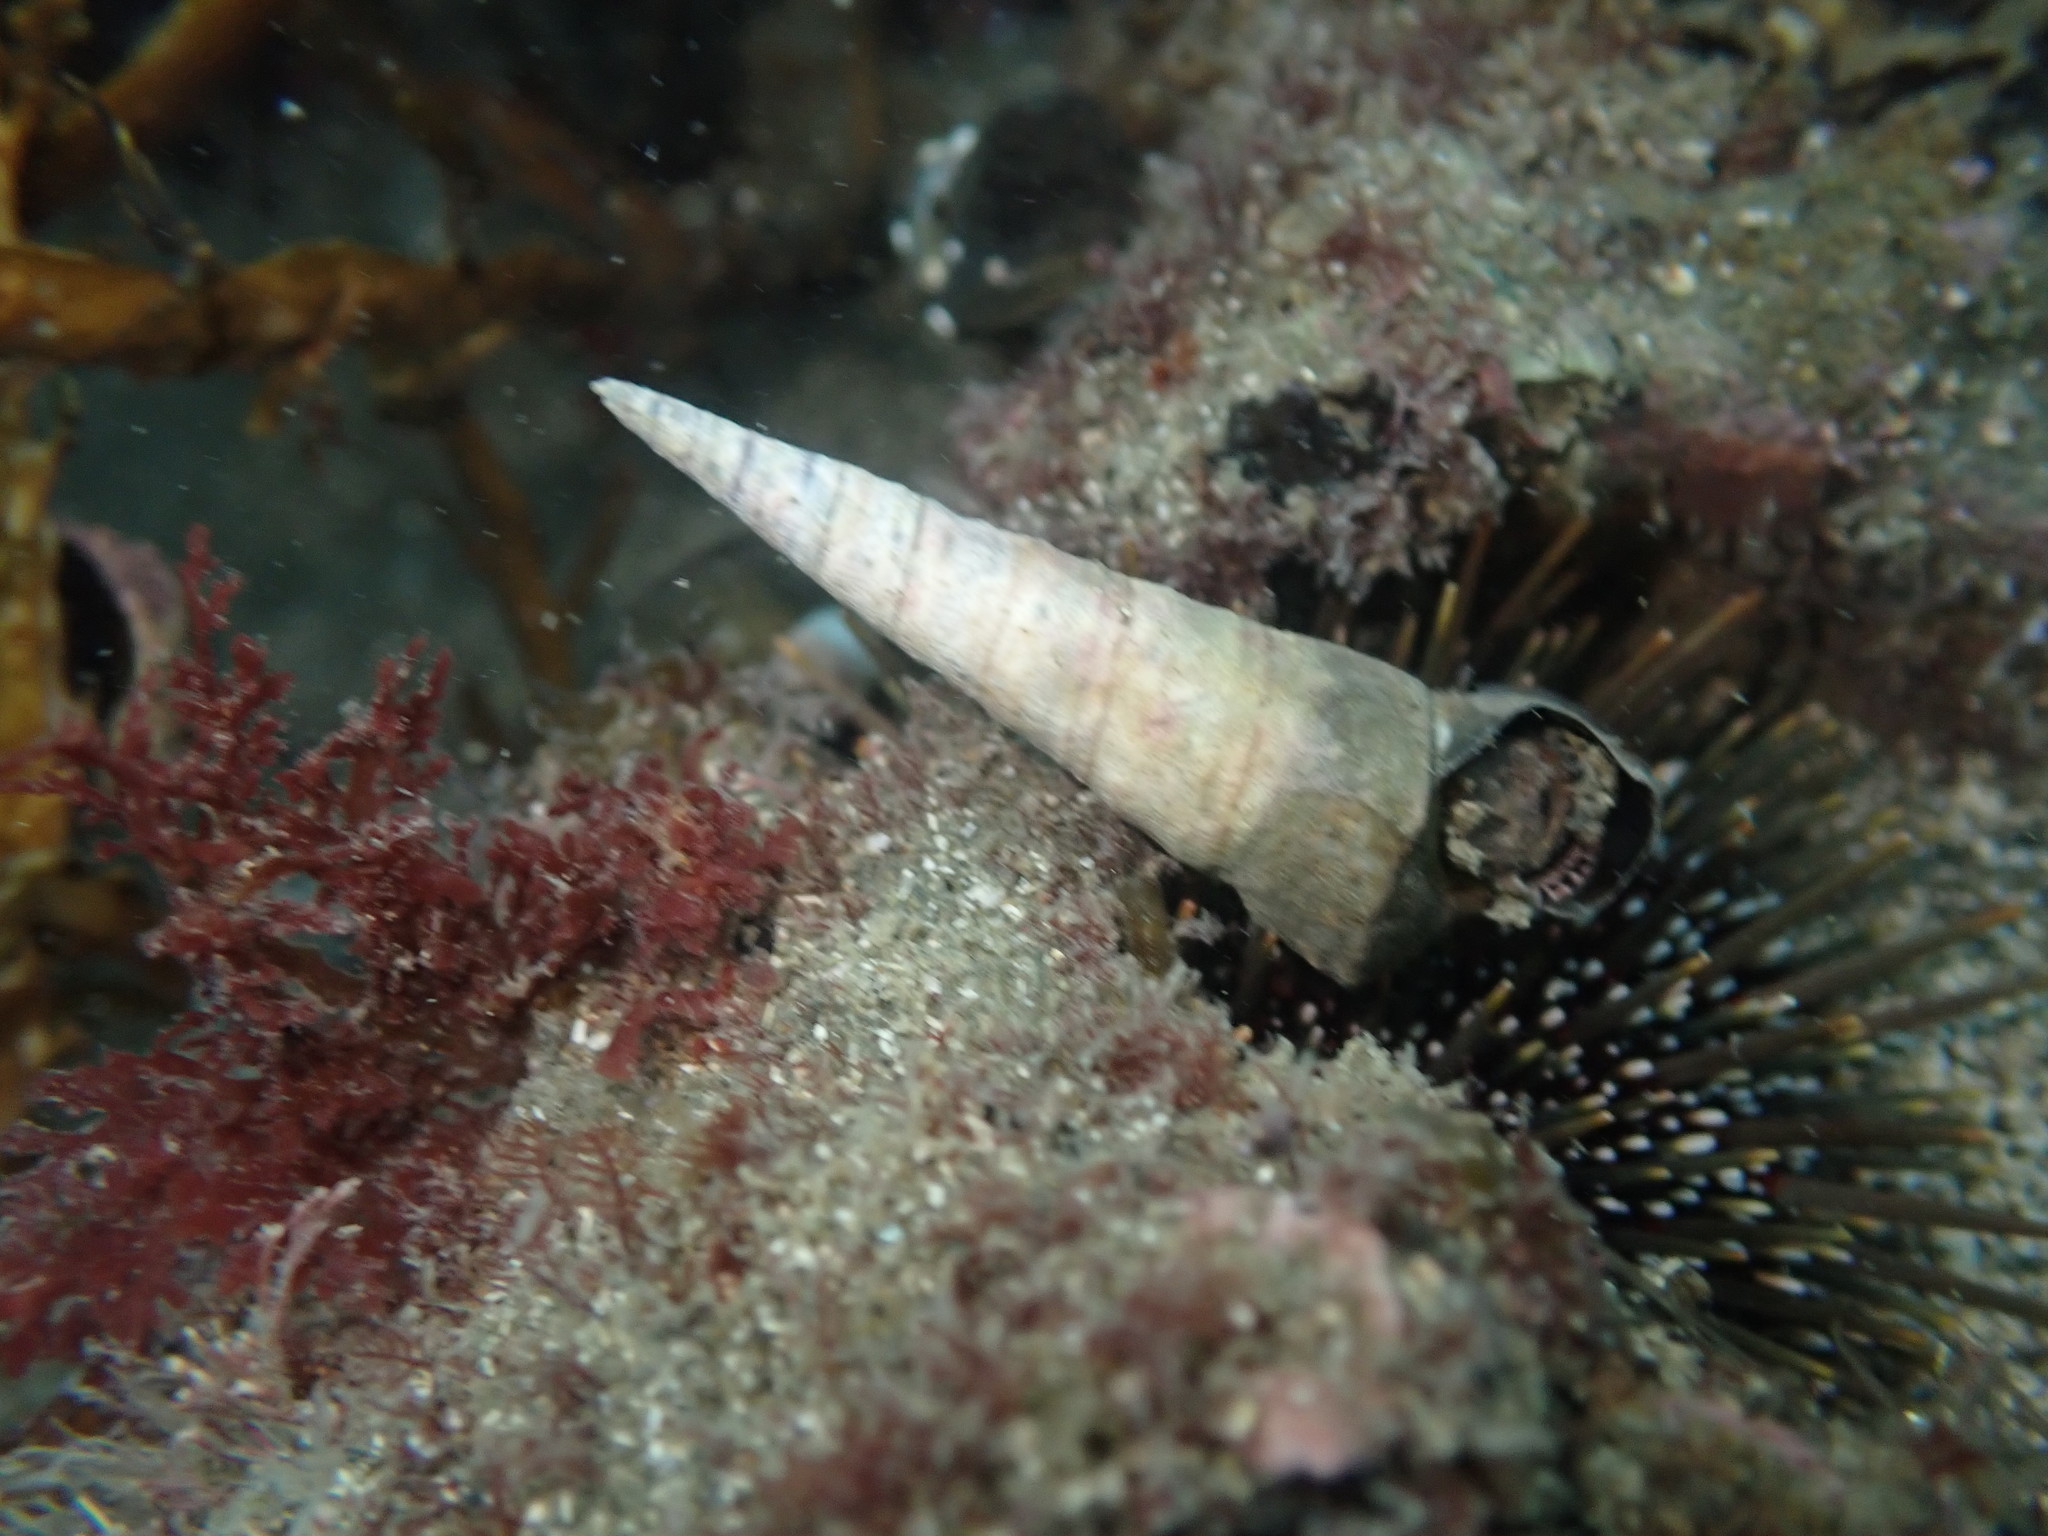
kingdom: Animalia
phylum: Mollusca
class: Gastropoda
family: Turritellidae
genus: Maoricolpus
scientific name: Maoricolpus roseus
